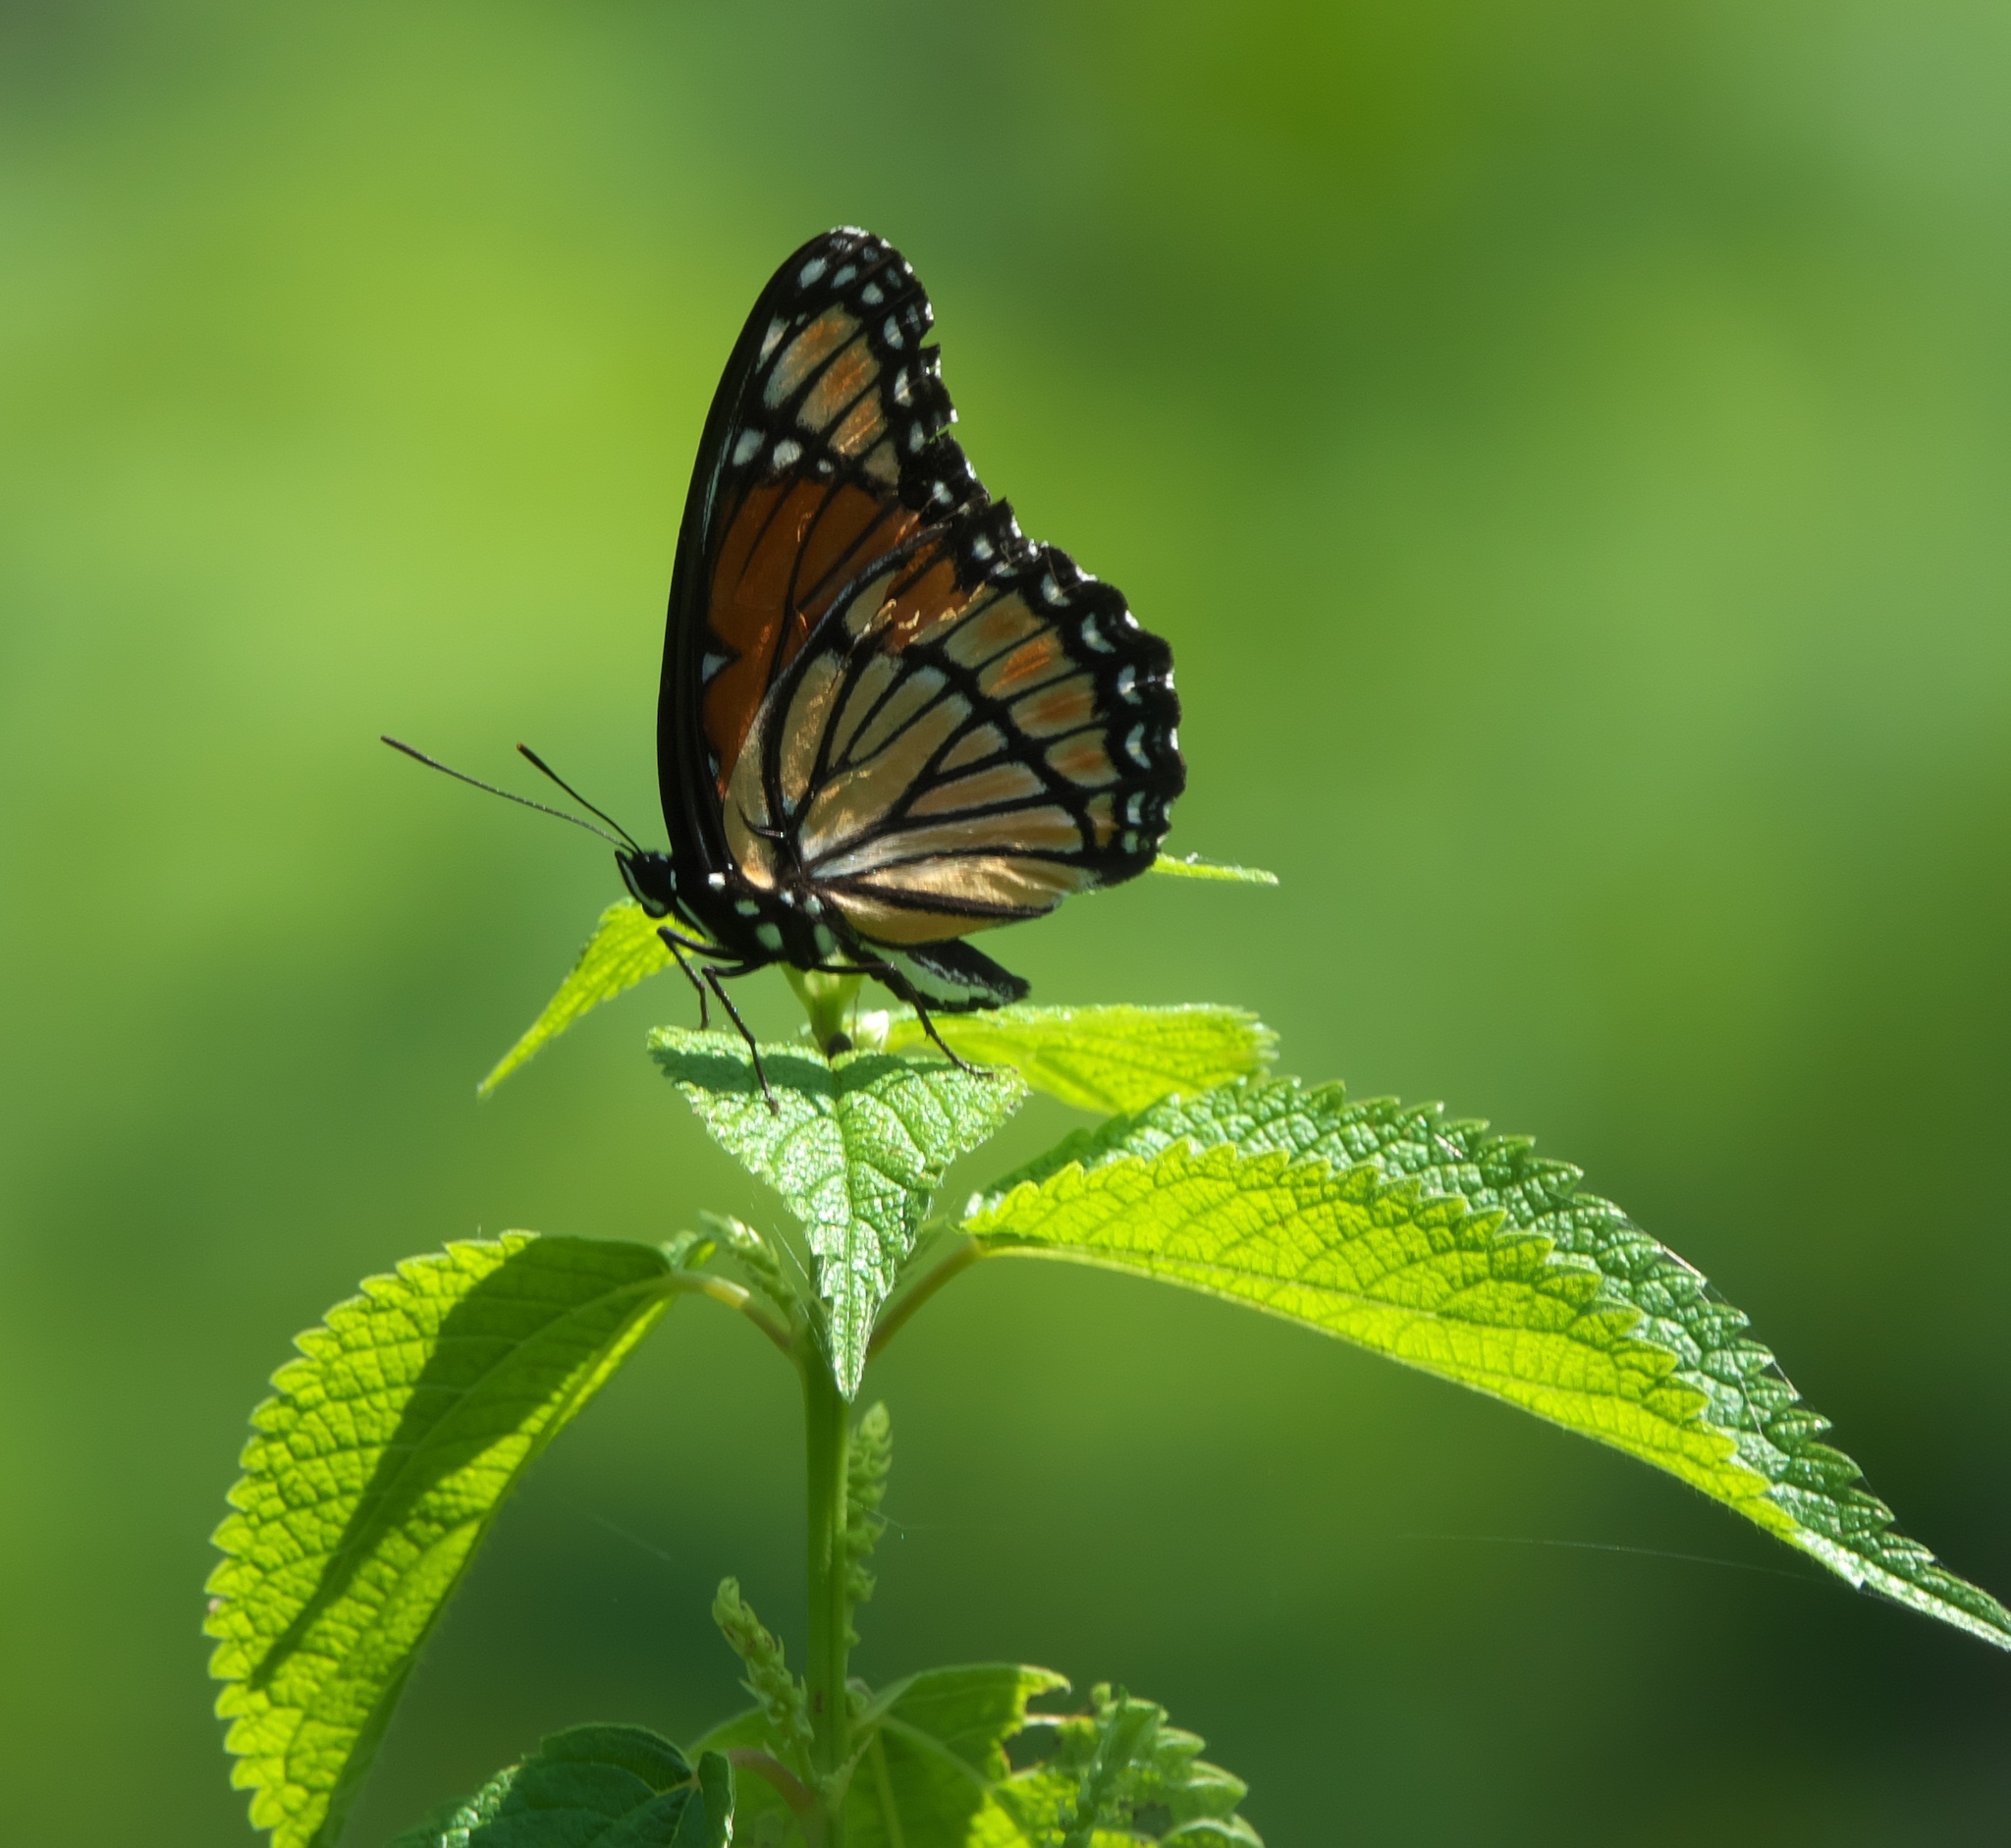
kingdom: Animalia
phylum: Arthropoda
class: Insecta
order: Lepidoptera
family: Nymphalidae
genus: Limenitis
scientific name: Limenitis archippus
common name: Viceroy
